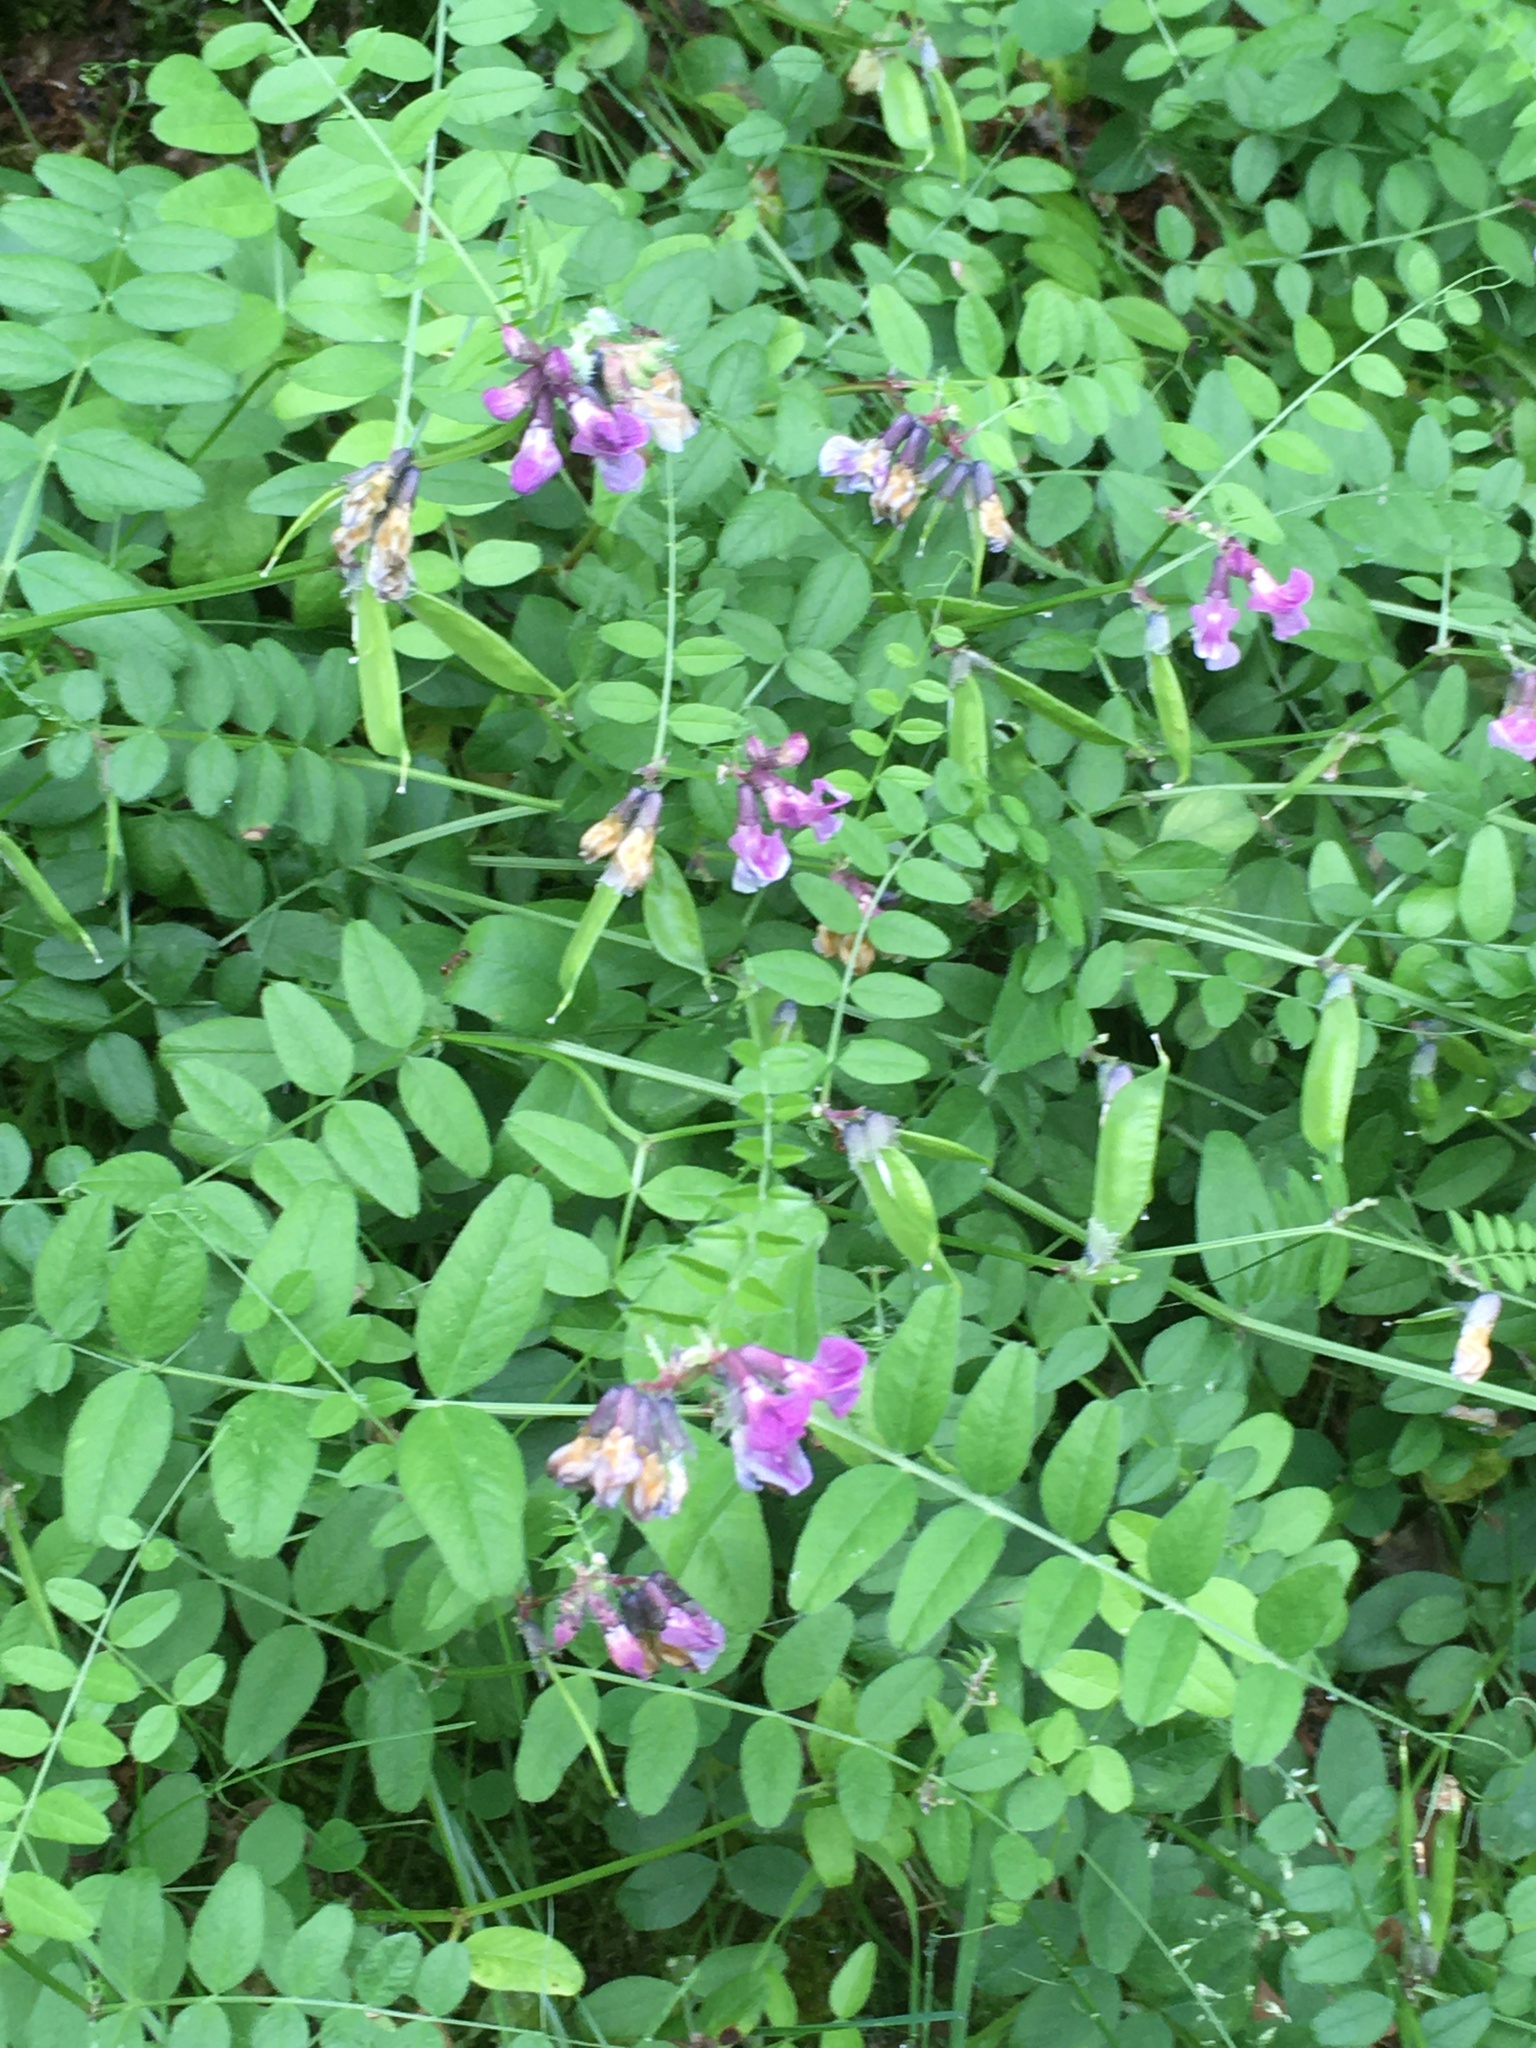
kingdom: Plantae
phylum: Tracheophyta
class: Magnoliopsida
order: Fabales
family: Fabaceae
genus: Vicia
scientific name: Vicia sepium
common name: Bush vetch
